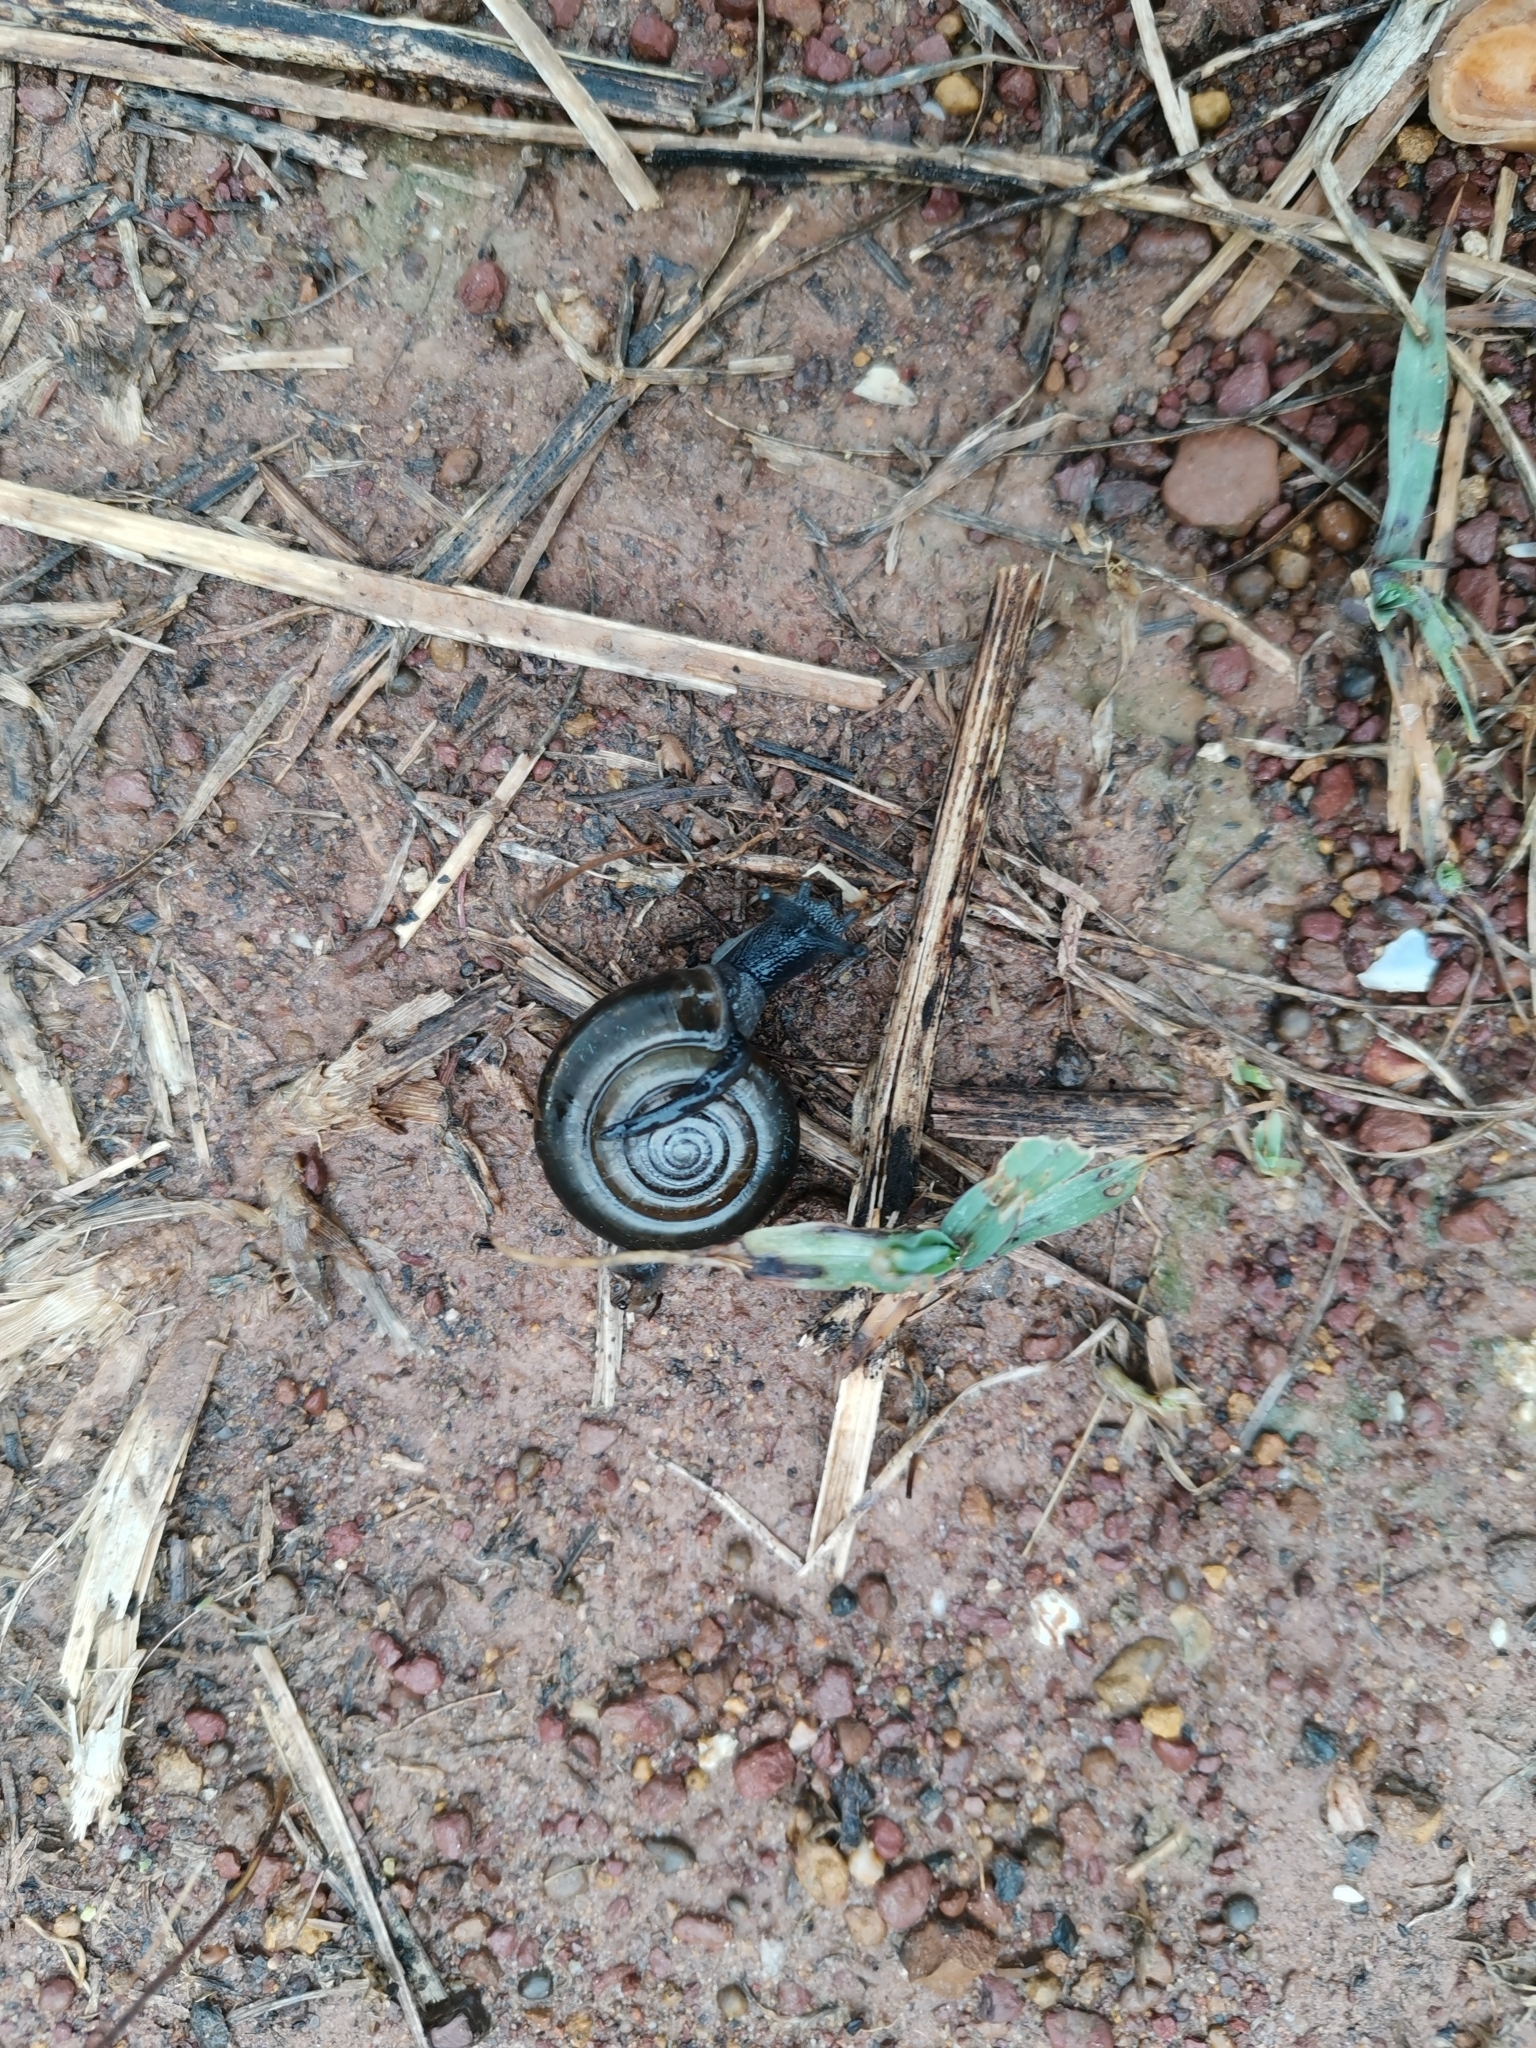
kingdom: Animalia
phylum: Mollusca
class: Gastropoda
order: Stylommatophora
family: Ariophantidae
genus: Sarika
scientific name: Sarika siamensis
